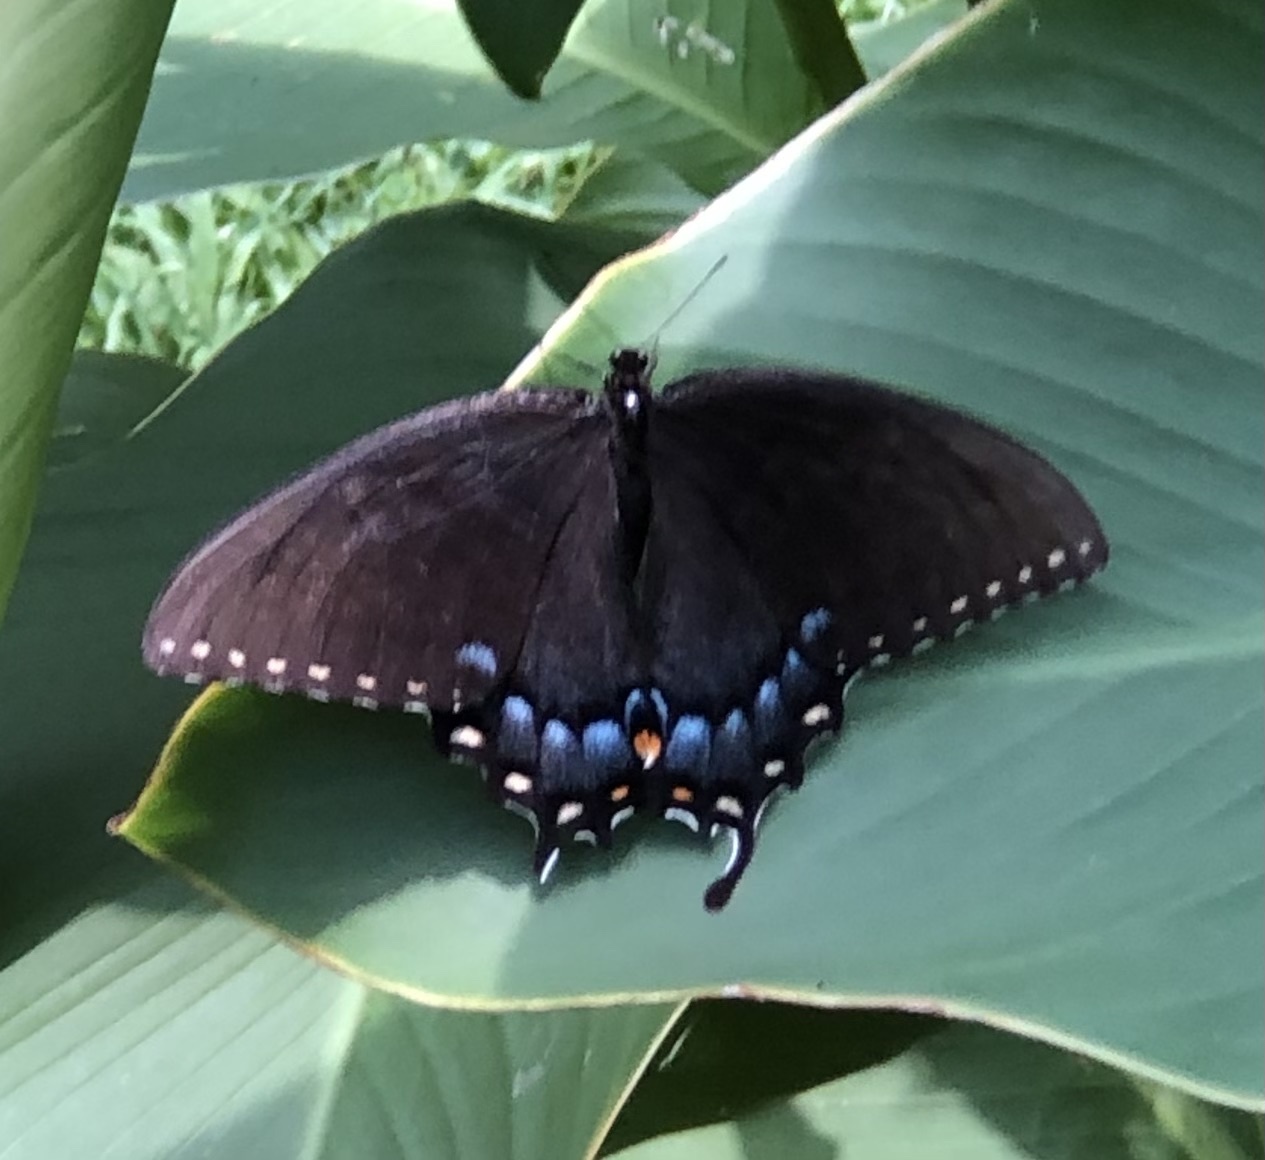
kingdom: Animalia
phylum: Arthropoda
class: Insecta
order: Lepidoptera
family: Papilionidae
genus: Papilio
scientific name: Papilio glaucus
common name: Tiger swallowtail
